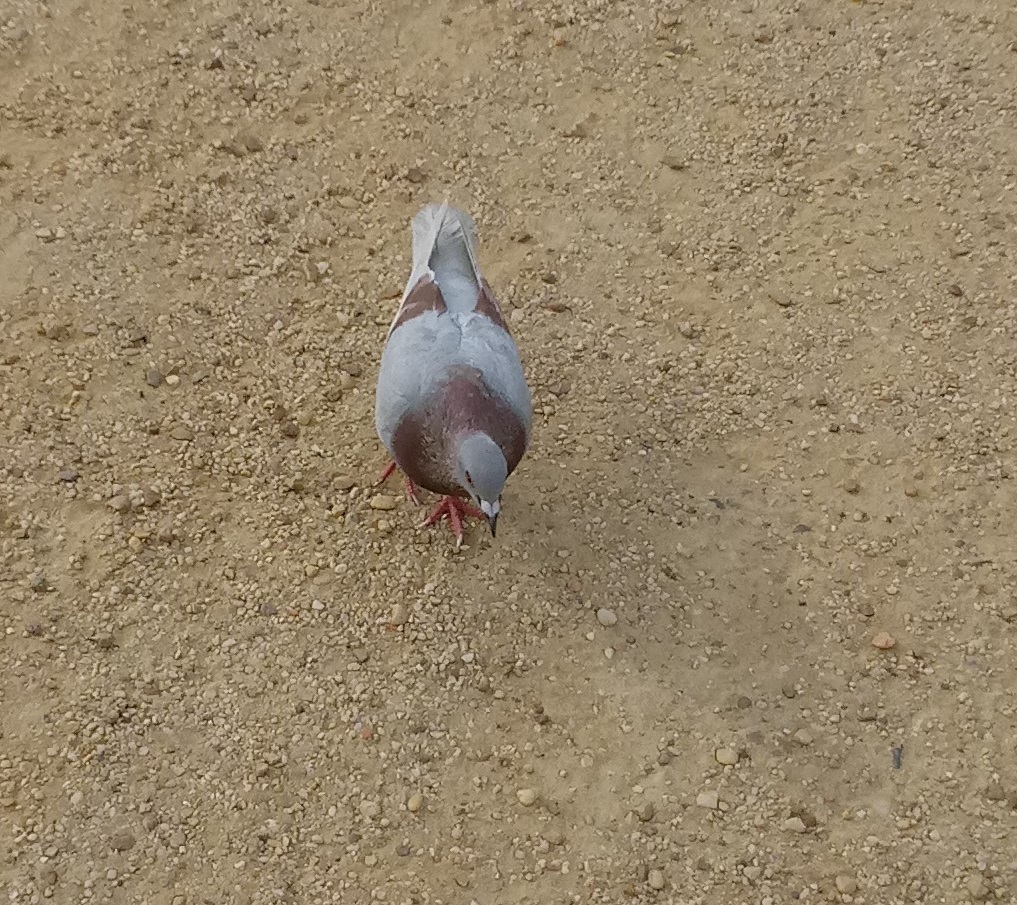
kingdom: Animalia
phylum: Chordata
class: Aves
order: Columbiformes
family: Columbidae
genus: Columba
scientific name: Columba livia
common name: Rock pigeon
